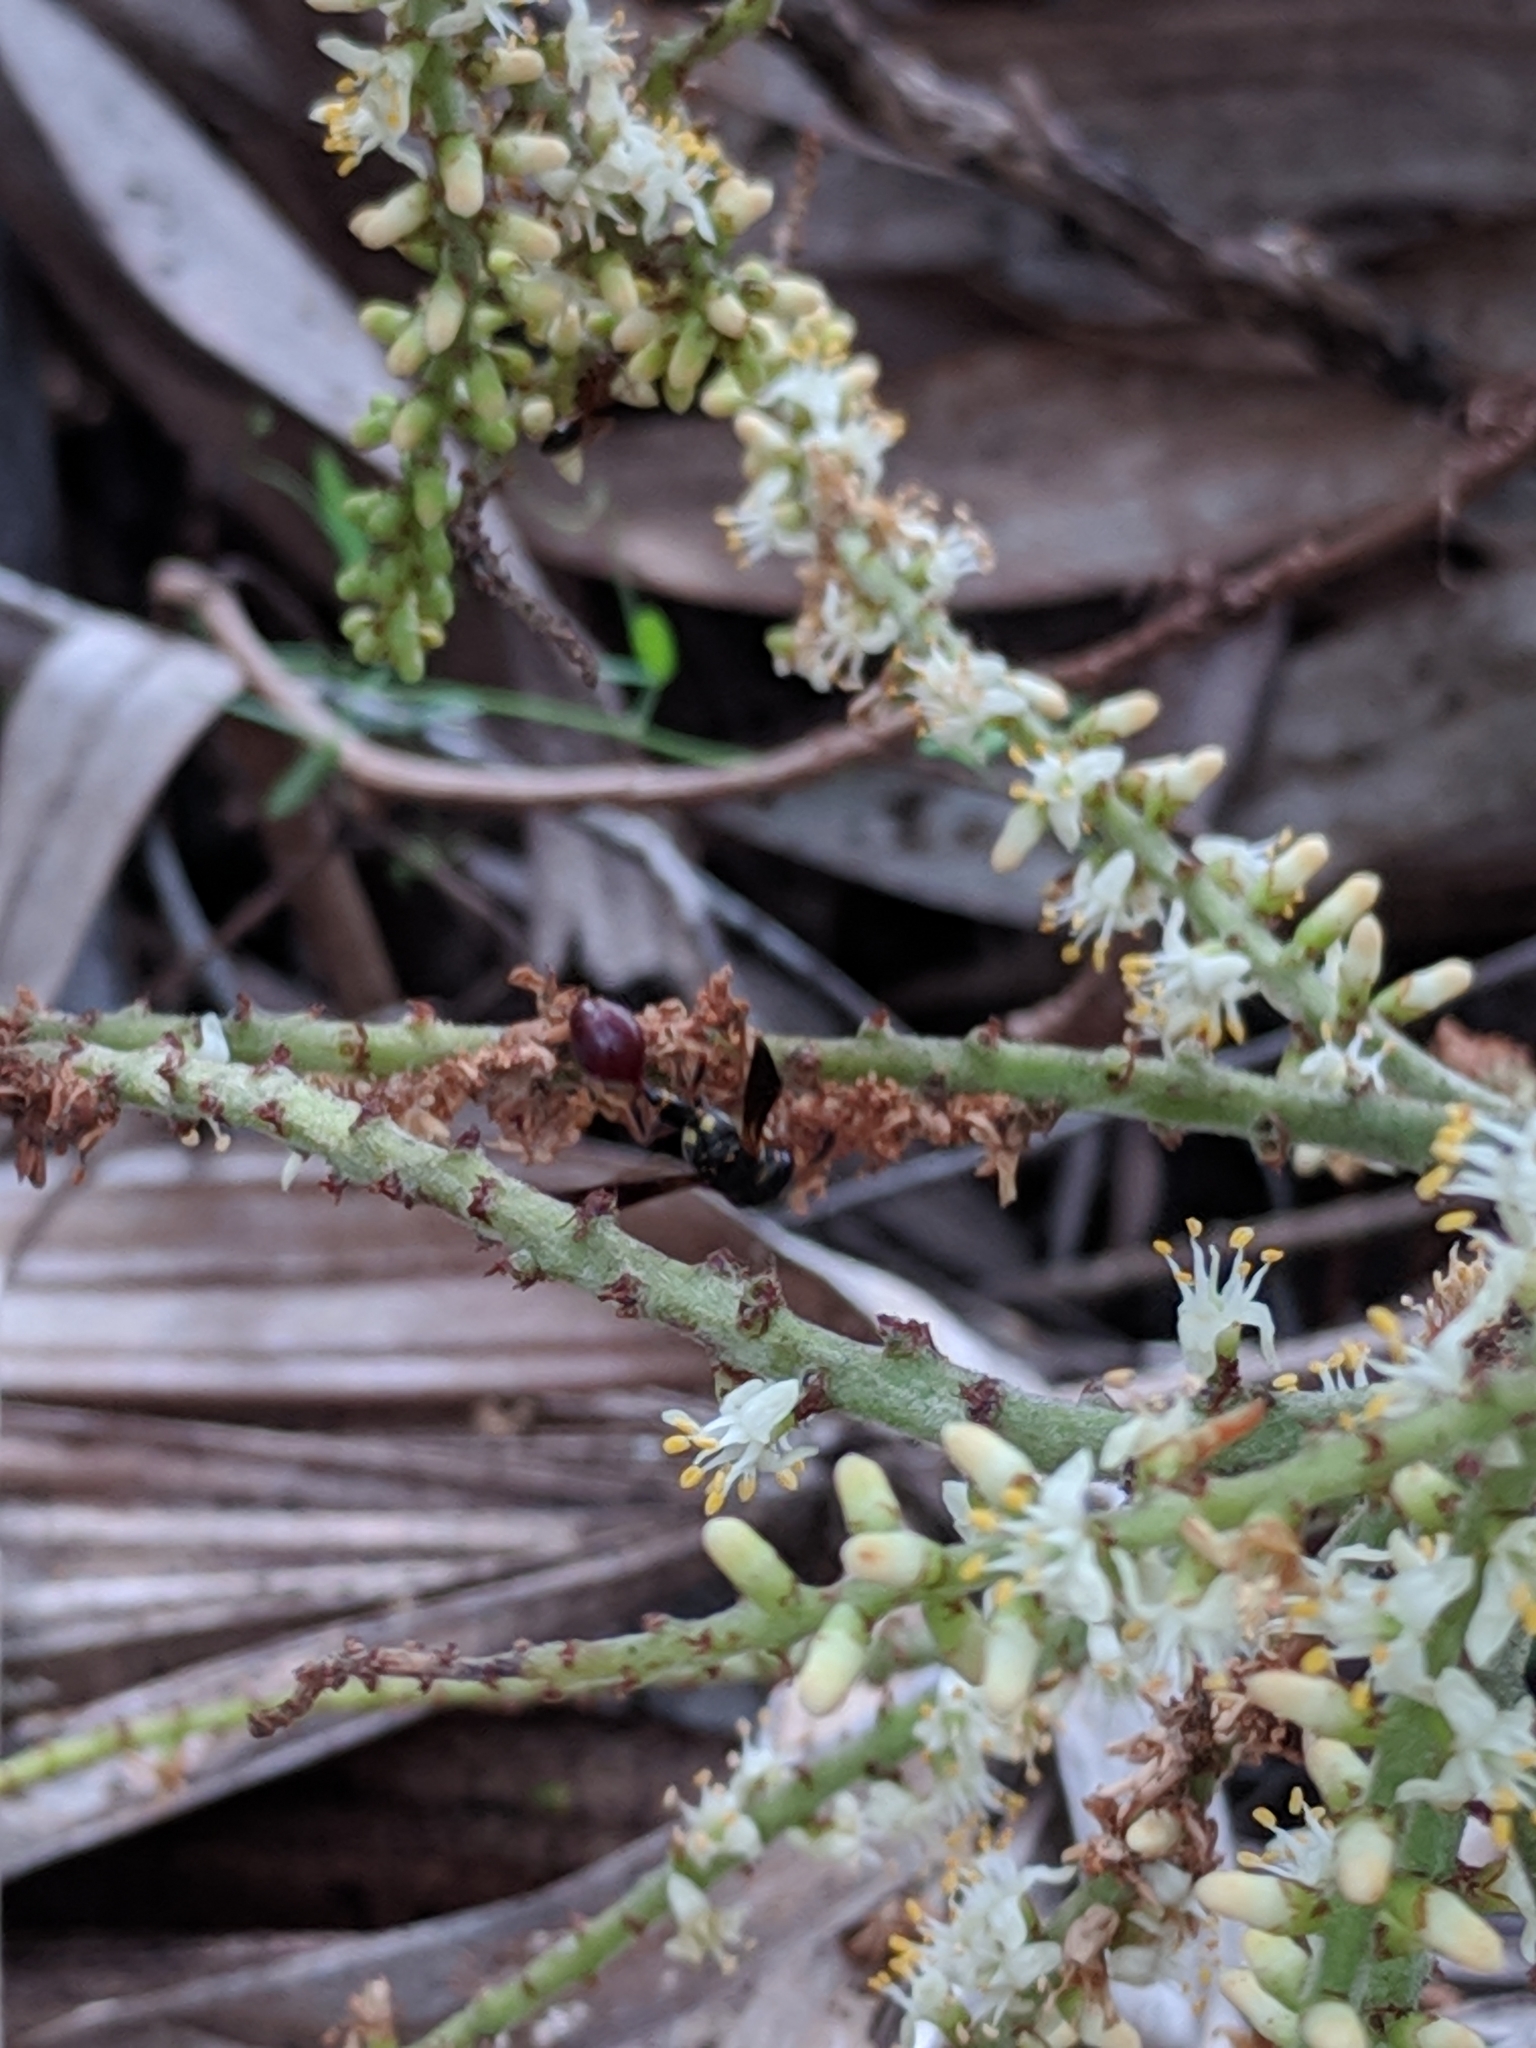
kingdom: Animalia
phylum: Arthropoda
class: Insecta
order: Hymenoptera
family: Eumenidae
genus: Zethus
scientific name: Zethus slossonae
